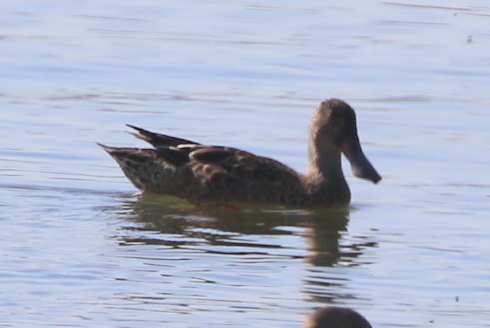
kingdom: Animalia
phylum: Chordata
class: Aves
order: Anseriformes
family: Anatidae
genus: Spatula
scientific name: Spatula clypeata
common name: Northern shoveler
